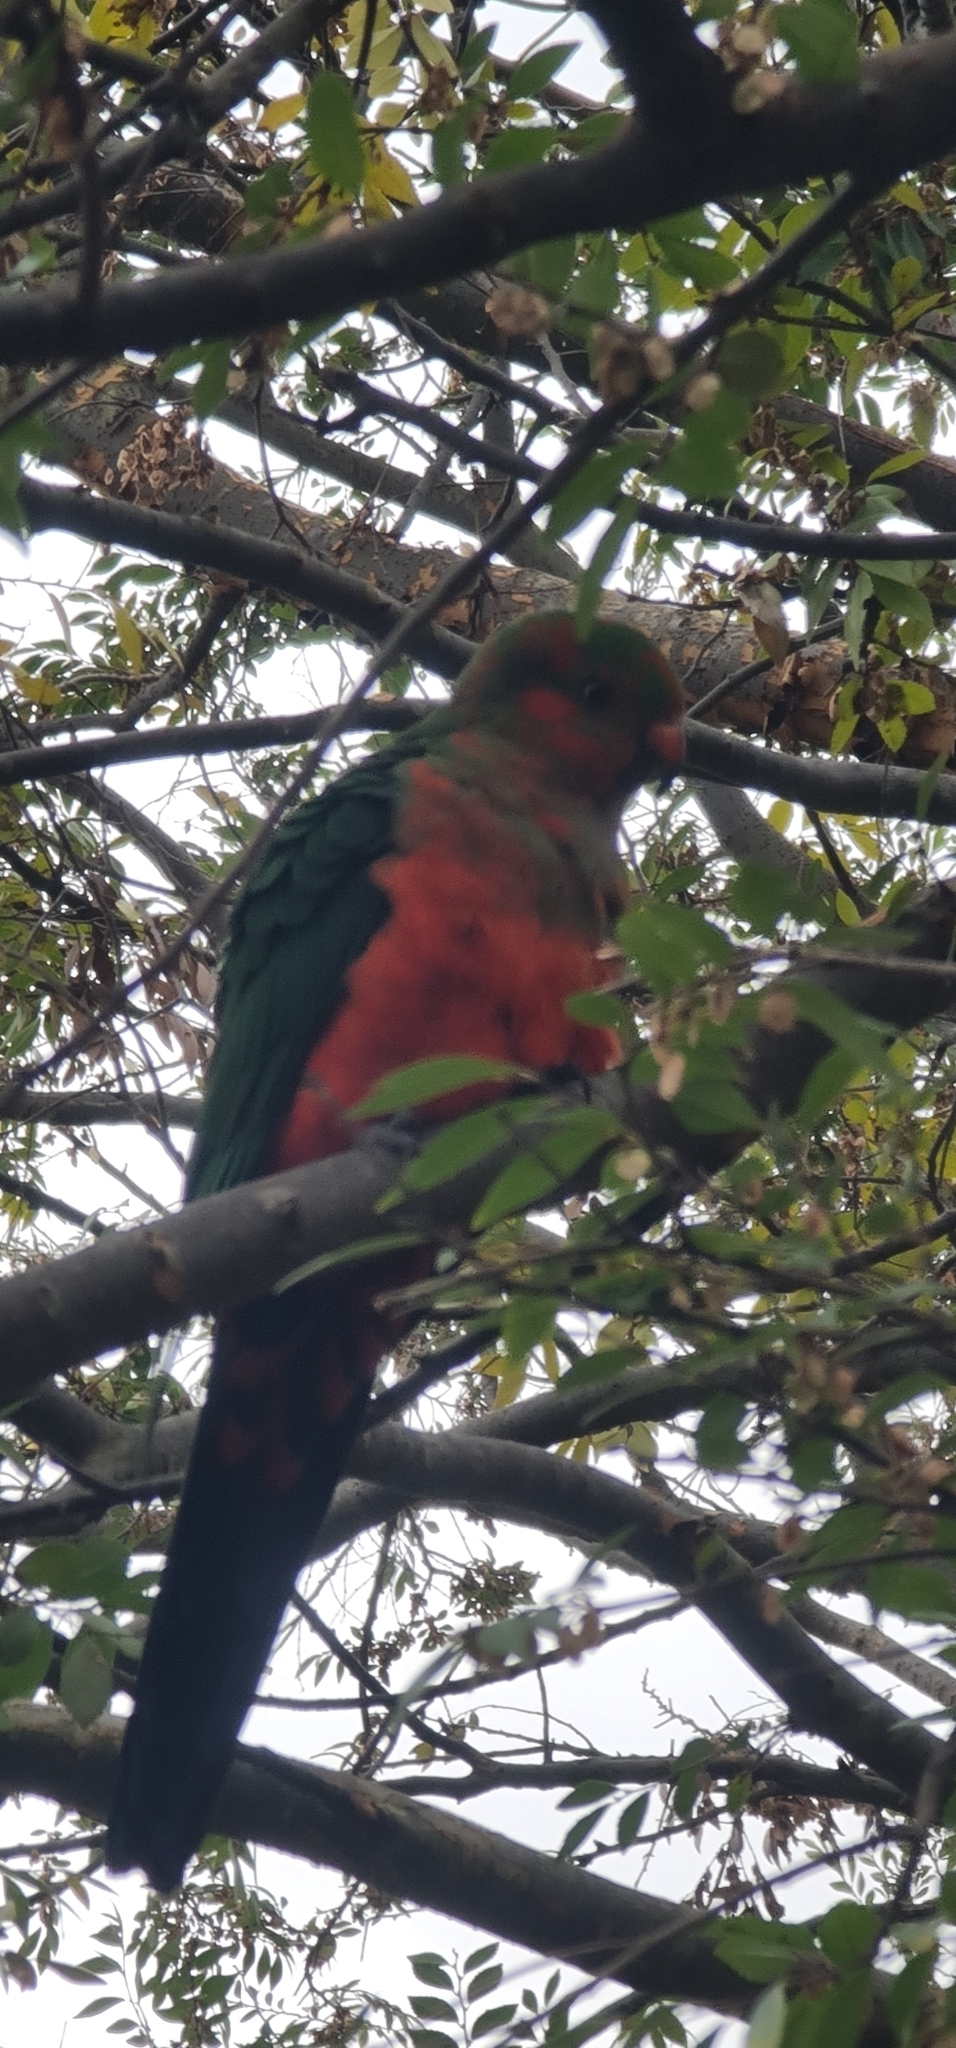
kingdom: Animalia
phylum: Chordata
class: Aves
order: Psittaciformes
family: Psittacidae
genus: Alisterus
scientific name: Alisterus scapularis
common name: Australian king parrot
